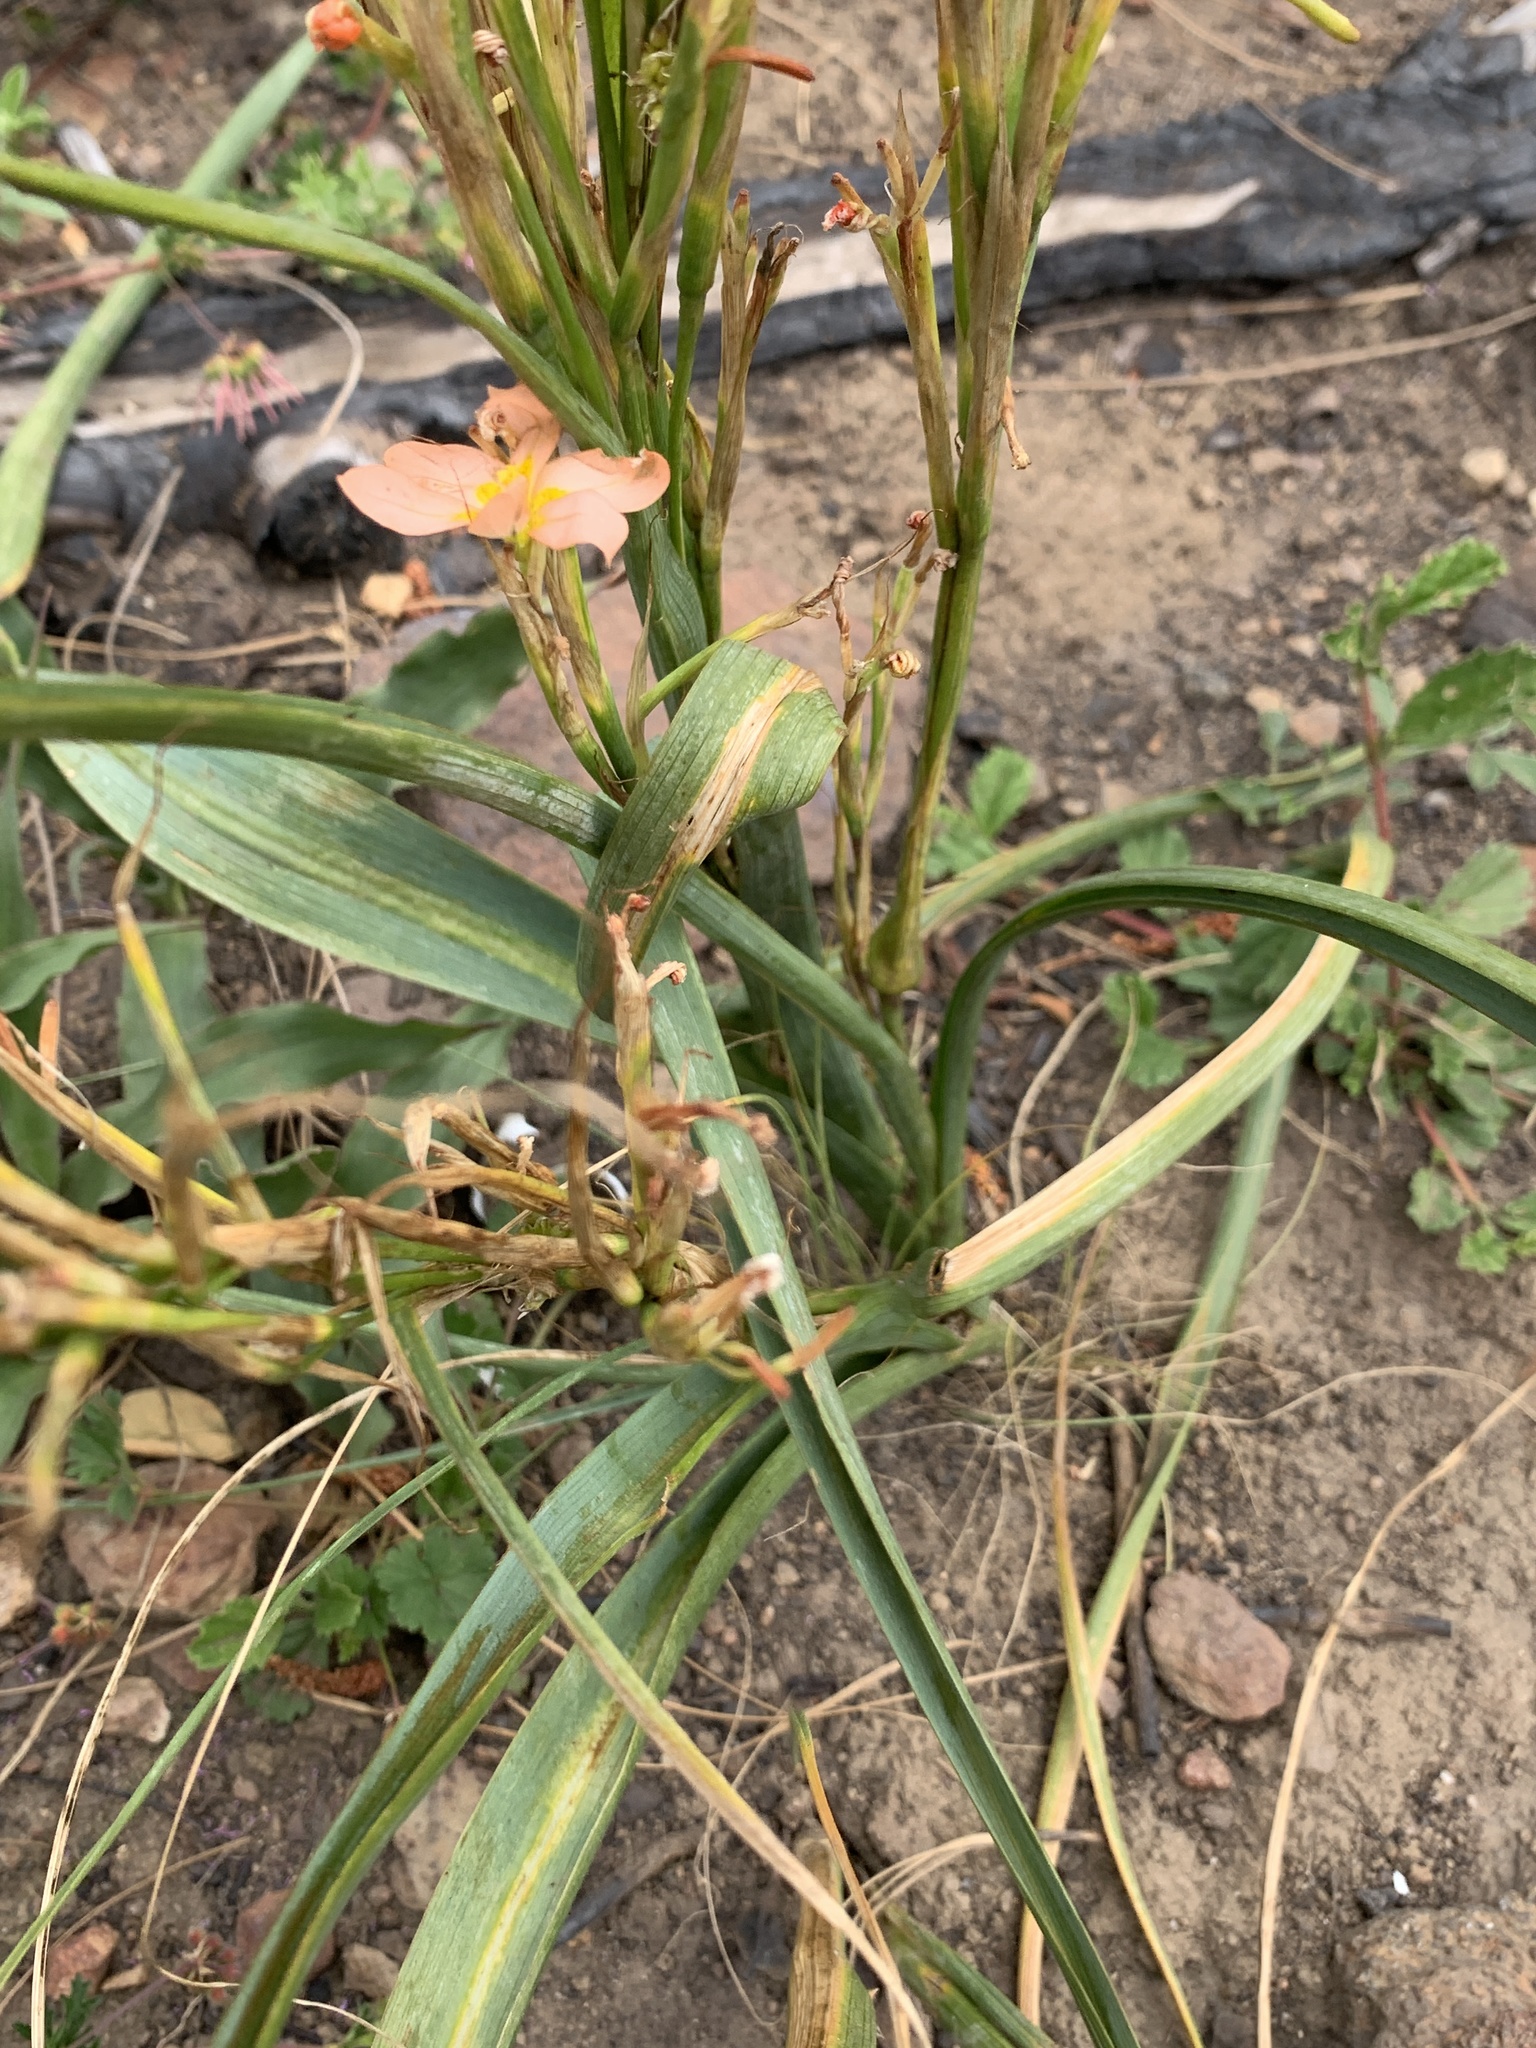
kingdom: Plantae
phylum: Tracheophyta
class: Liliopsida
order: Asparagales
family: Iridaceae
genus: Moraea
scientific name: Moraea miniata
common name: Two-leaf cape-tulip
